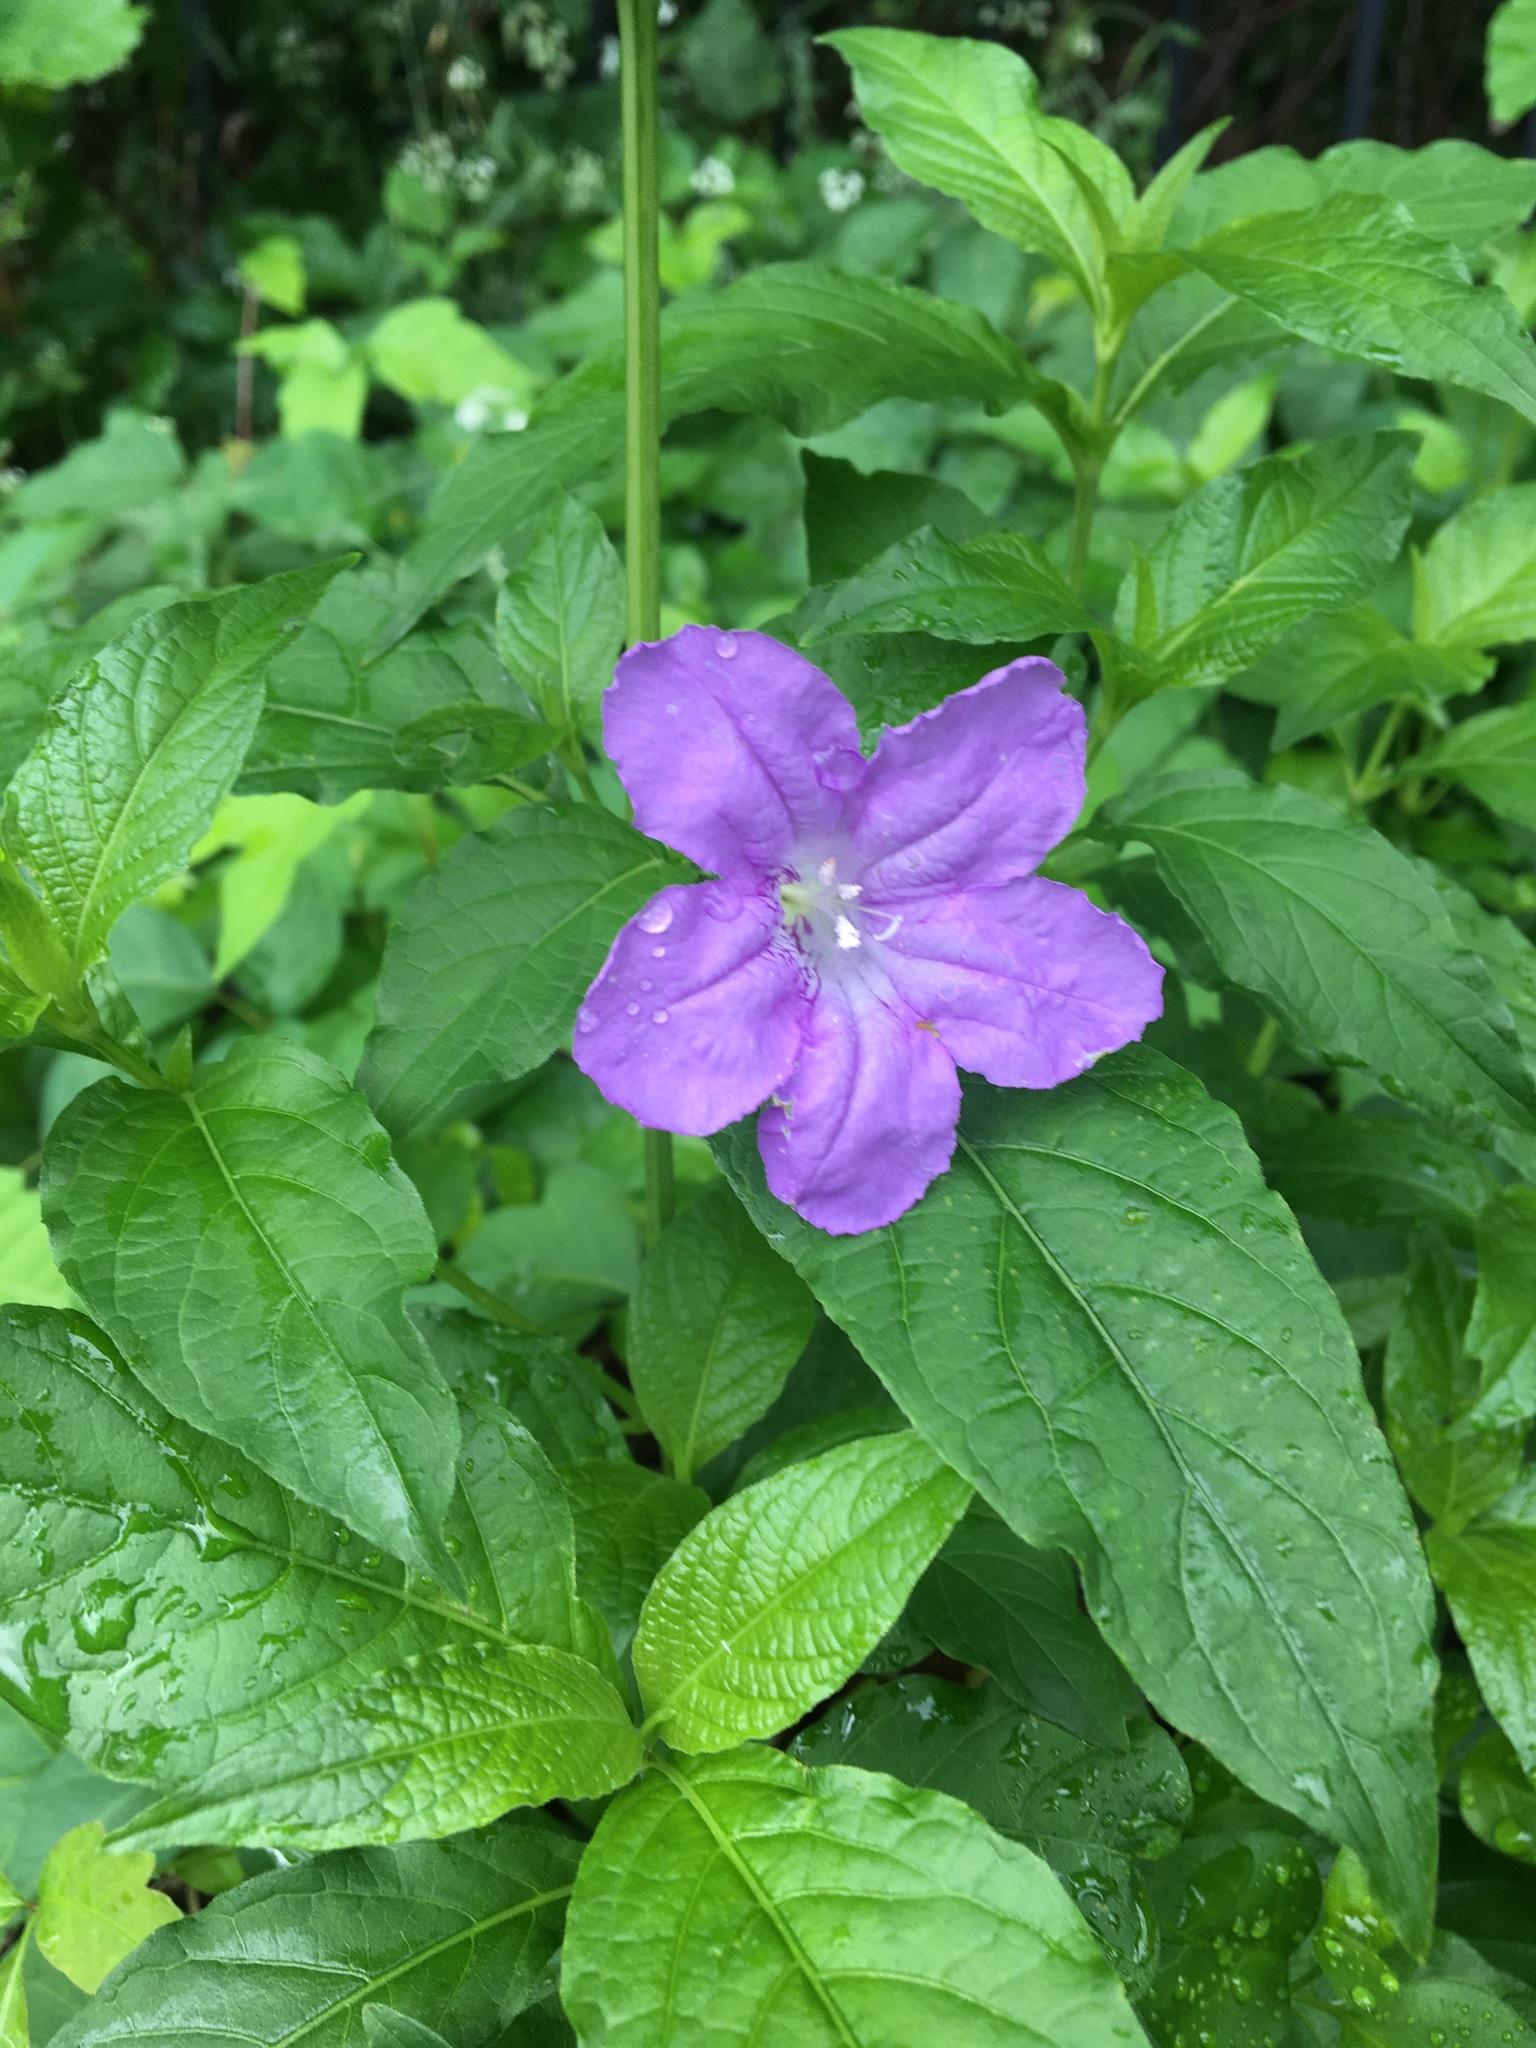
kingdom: Plantae
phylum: Tracheophyta
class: Magnoliopsida
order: Lamiales
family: Acanthaceae
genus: Ruellia
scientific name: Ruellia strepens
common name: Limestone wild petunia
